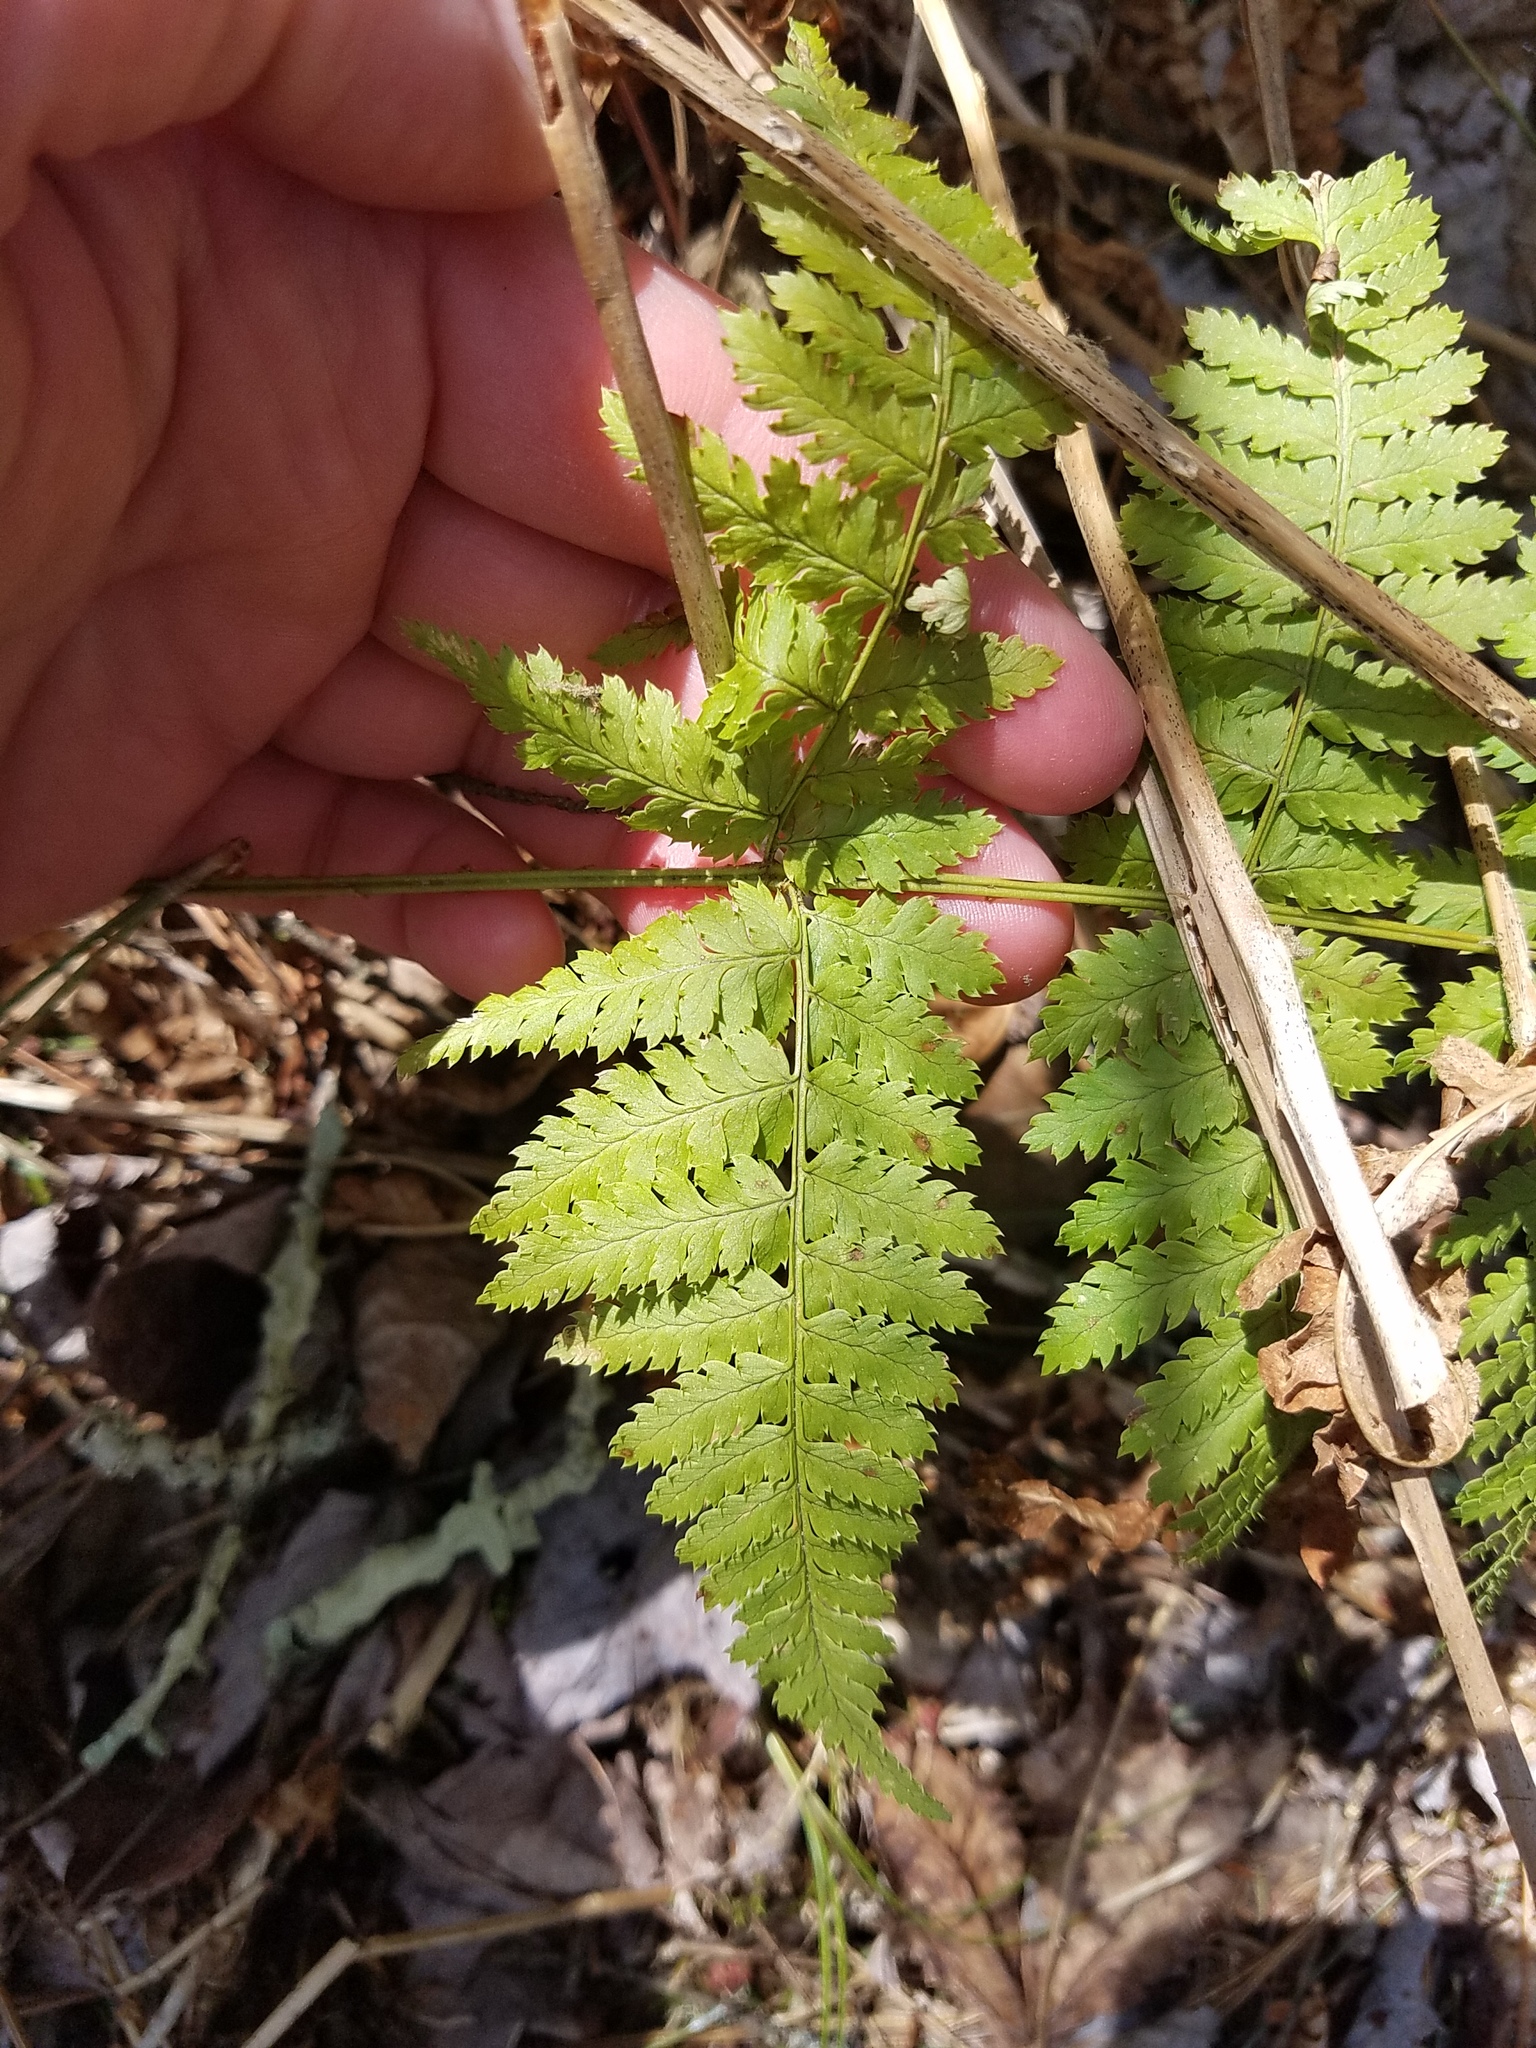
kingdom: Plantae
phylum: Tracheophyta
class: Polypodiopsida
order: Polypodiales
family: Dryopteridaceae
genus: Dryopteris
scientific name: Dryopteris carthusiana
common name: Narrow buckler-fern
